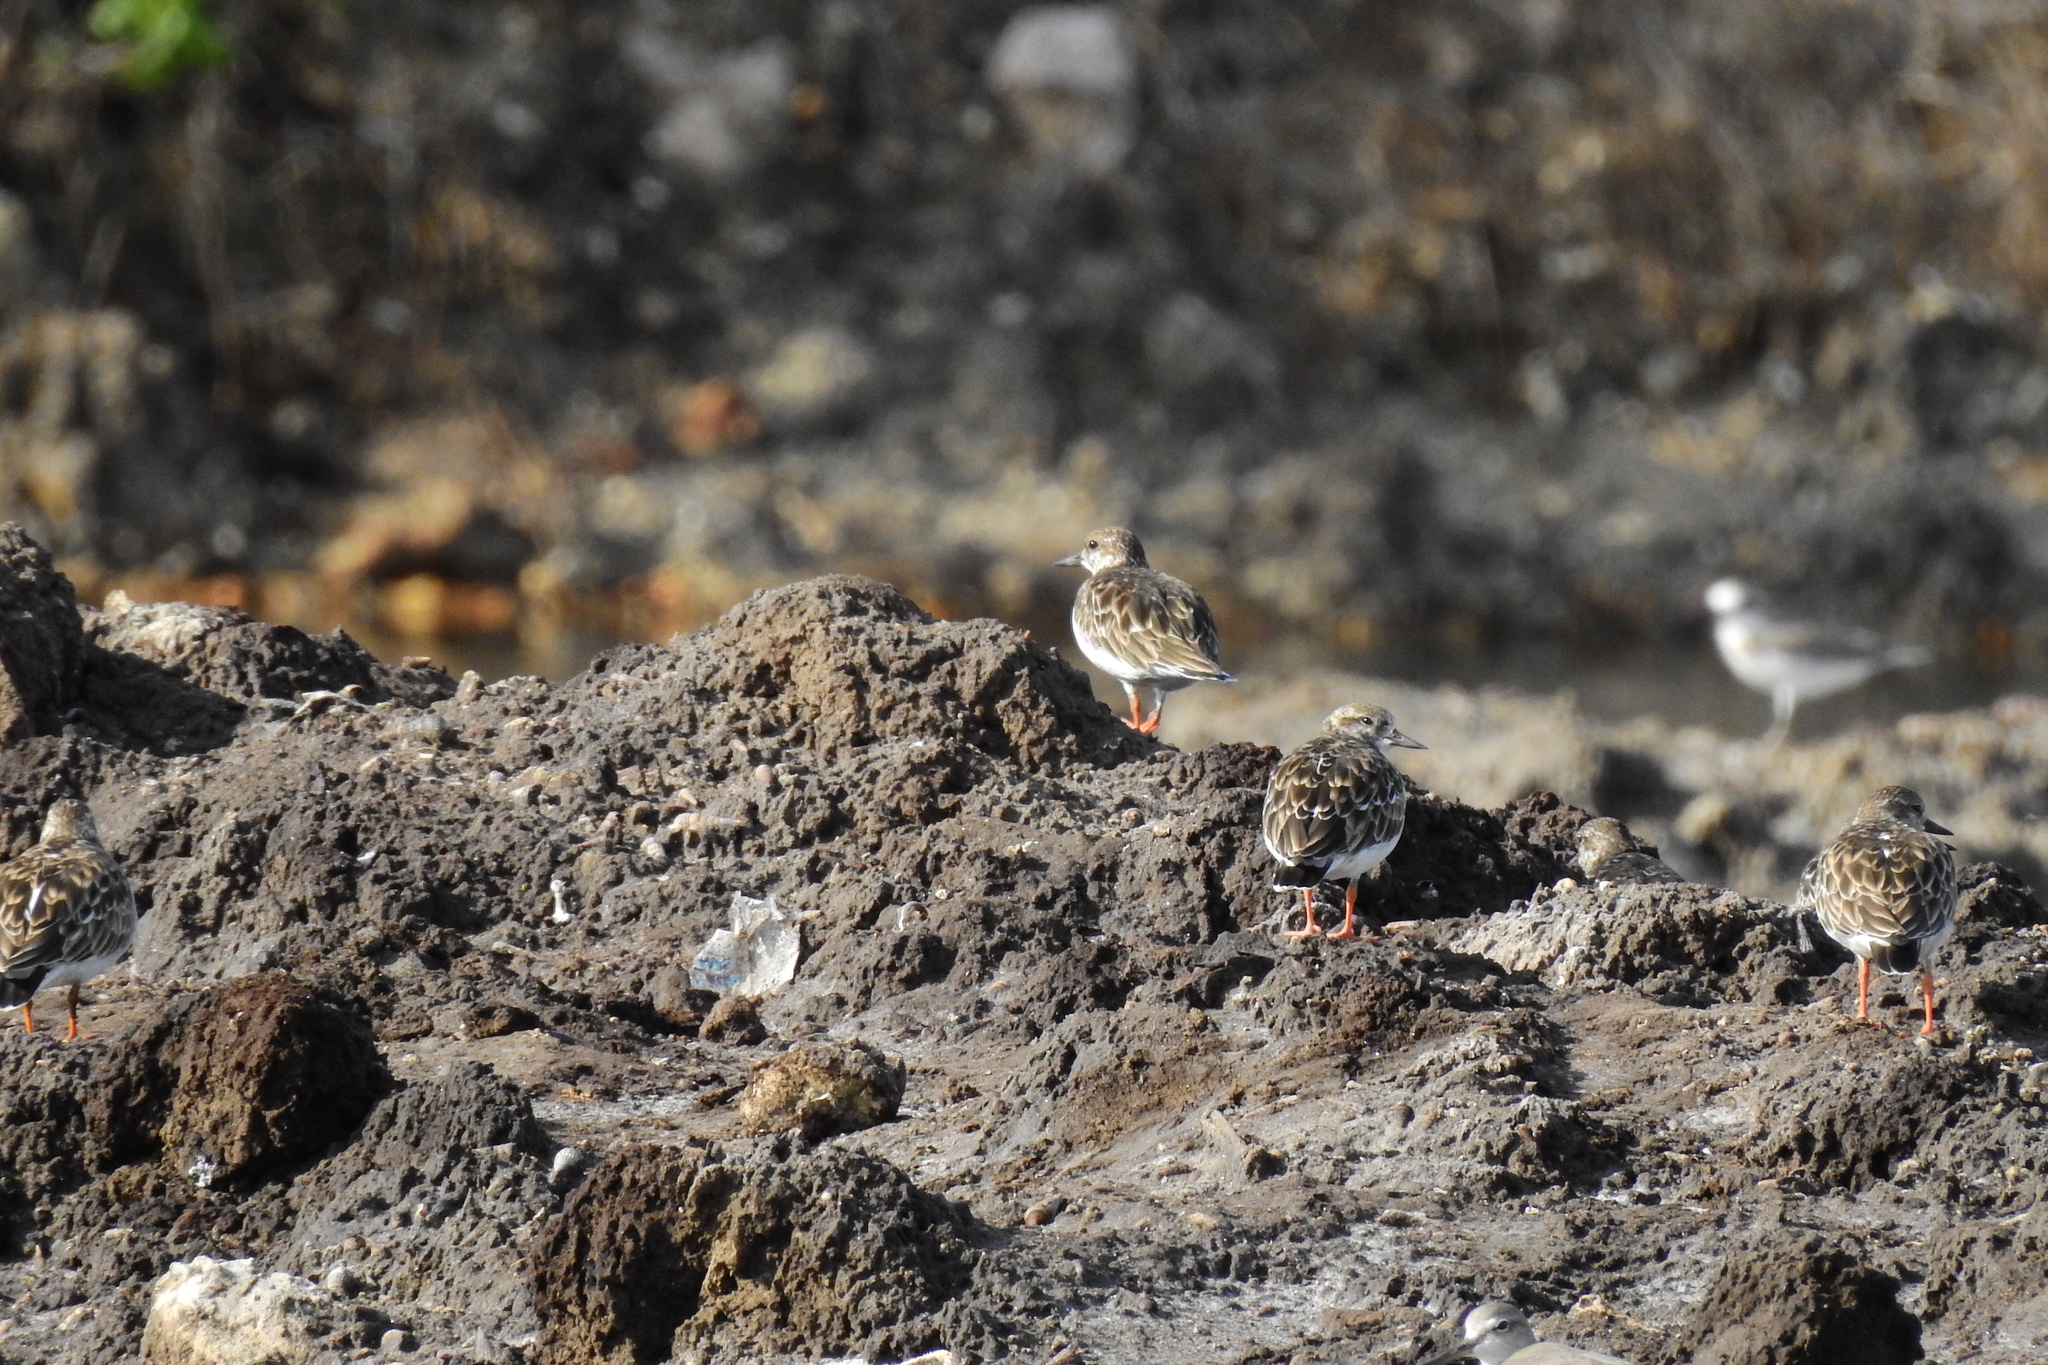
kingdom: Animalia
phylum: Chordata
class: Aves
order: Charadriiformes
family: Scolopacidae
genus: Arenaria
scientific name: Arenaria interpres
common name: Ruddy turnstone
